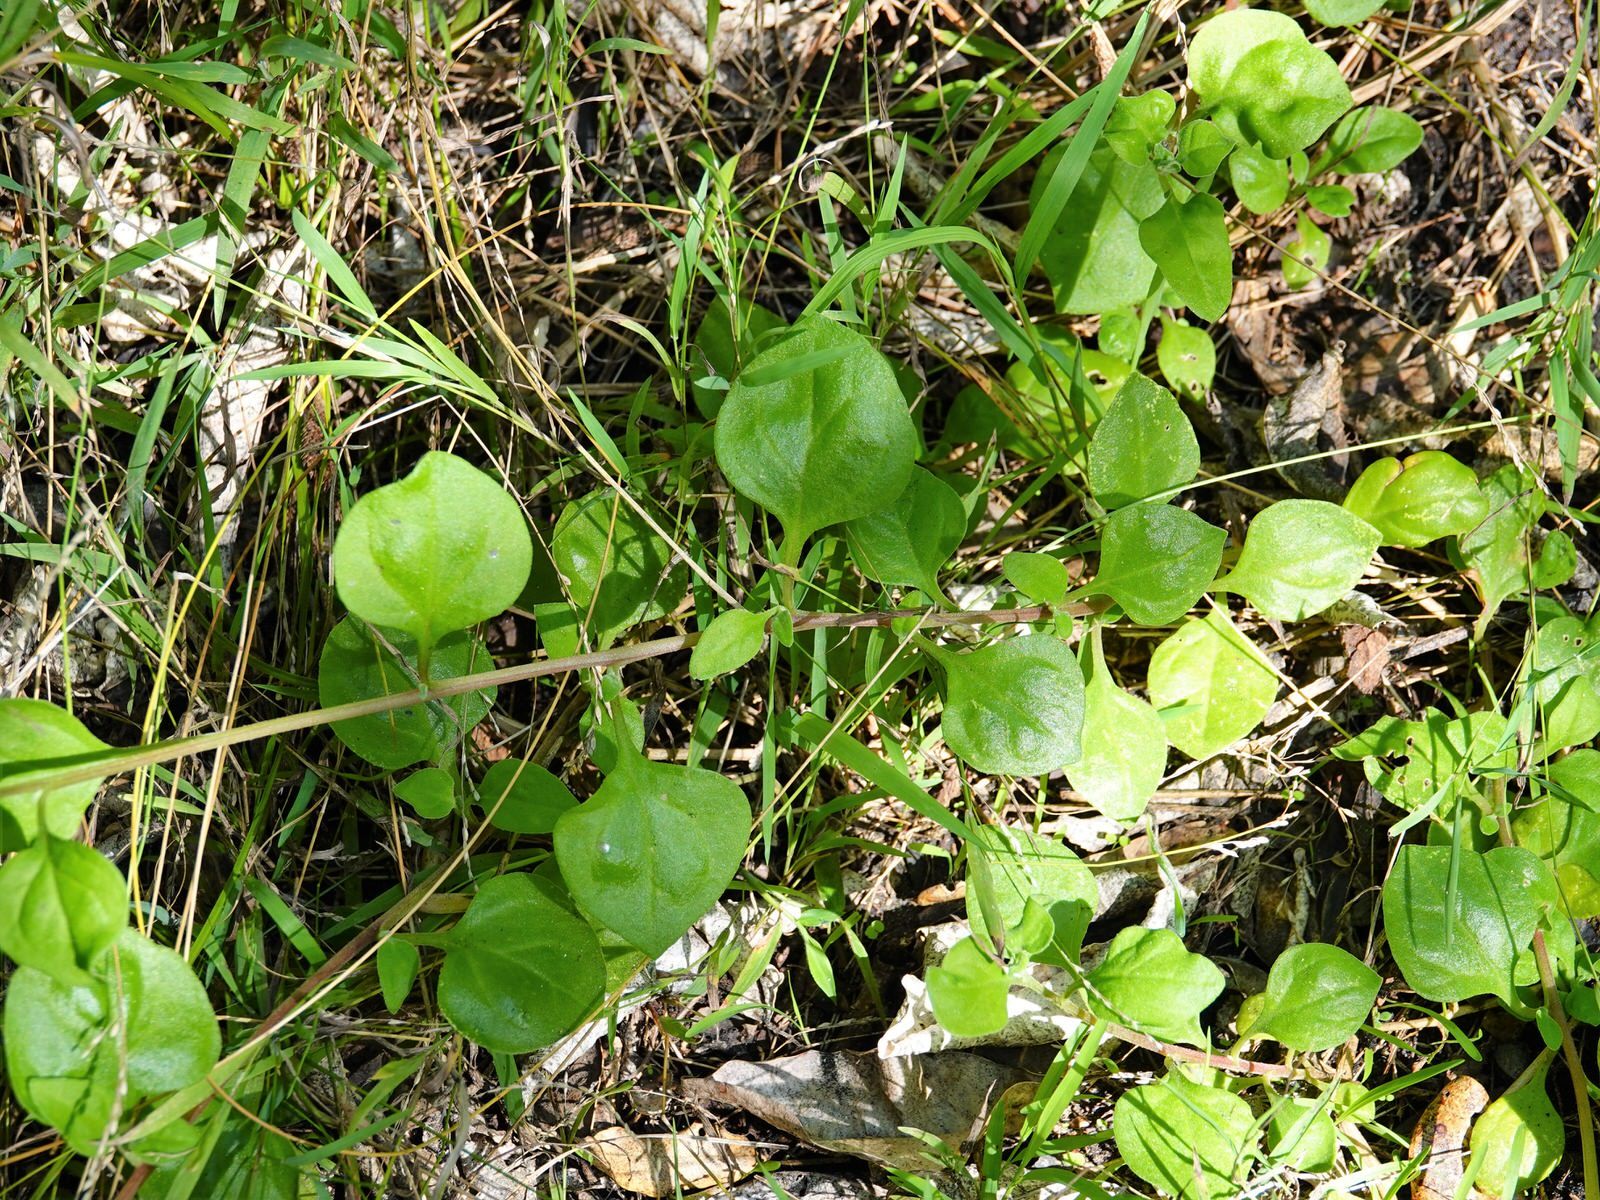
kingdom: Plantae
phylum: Tracheophyta
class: Magnoliopsida
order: Caryophyllales
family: Aizoaceae
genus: Tetragonia
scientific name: Tetragonia implexicoma
